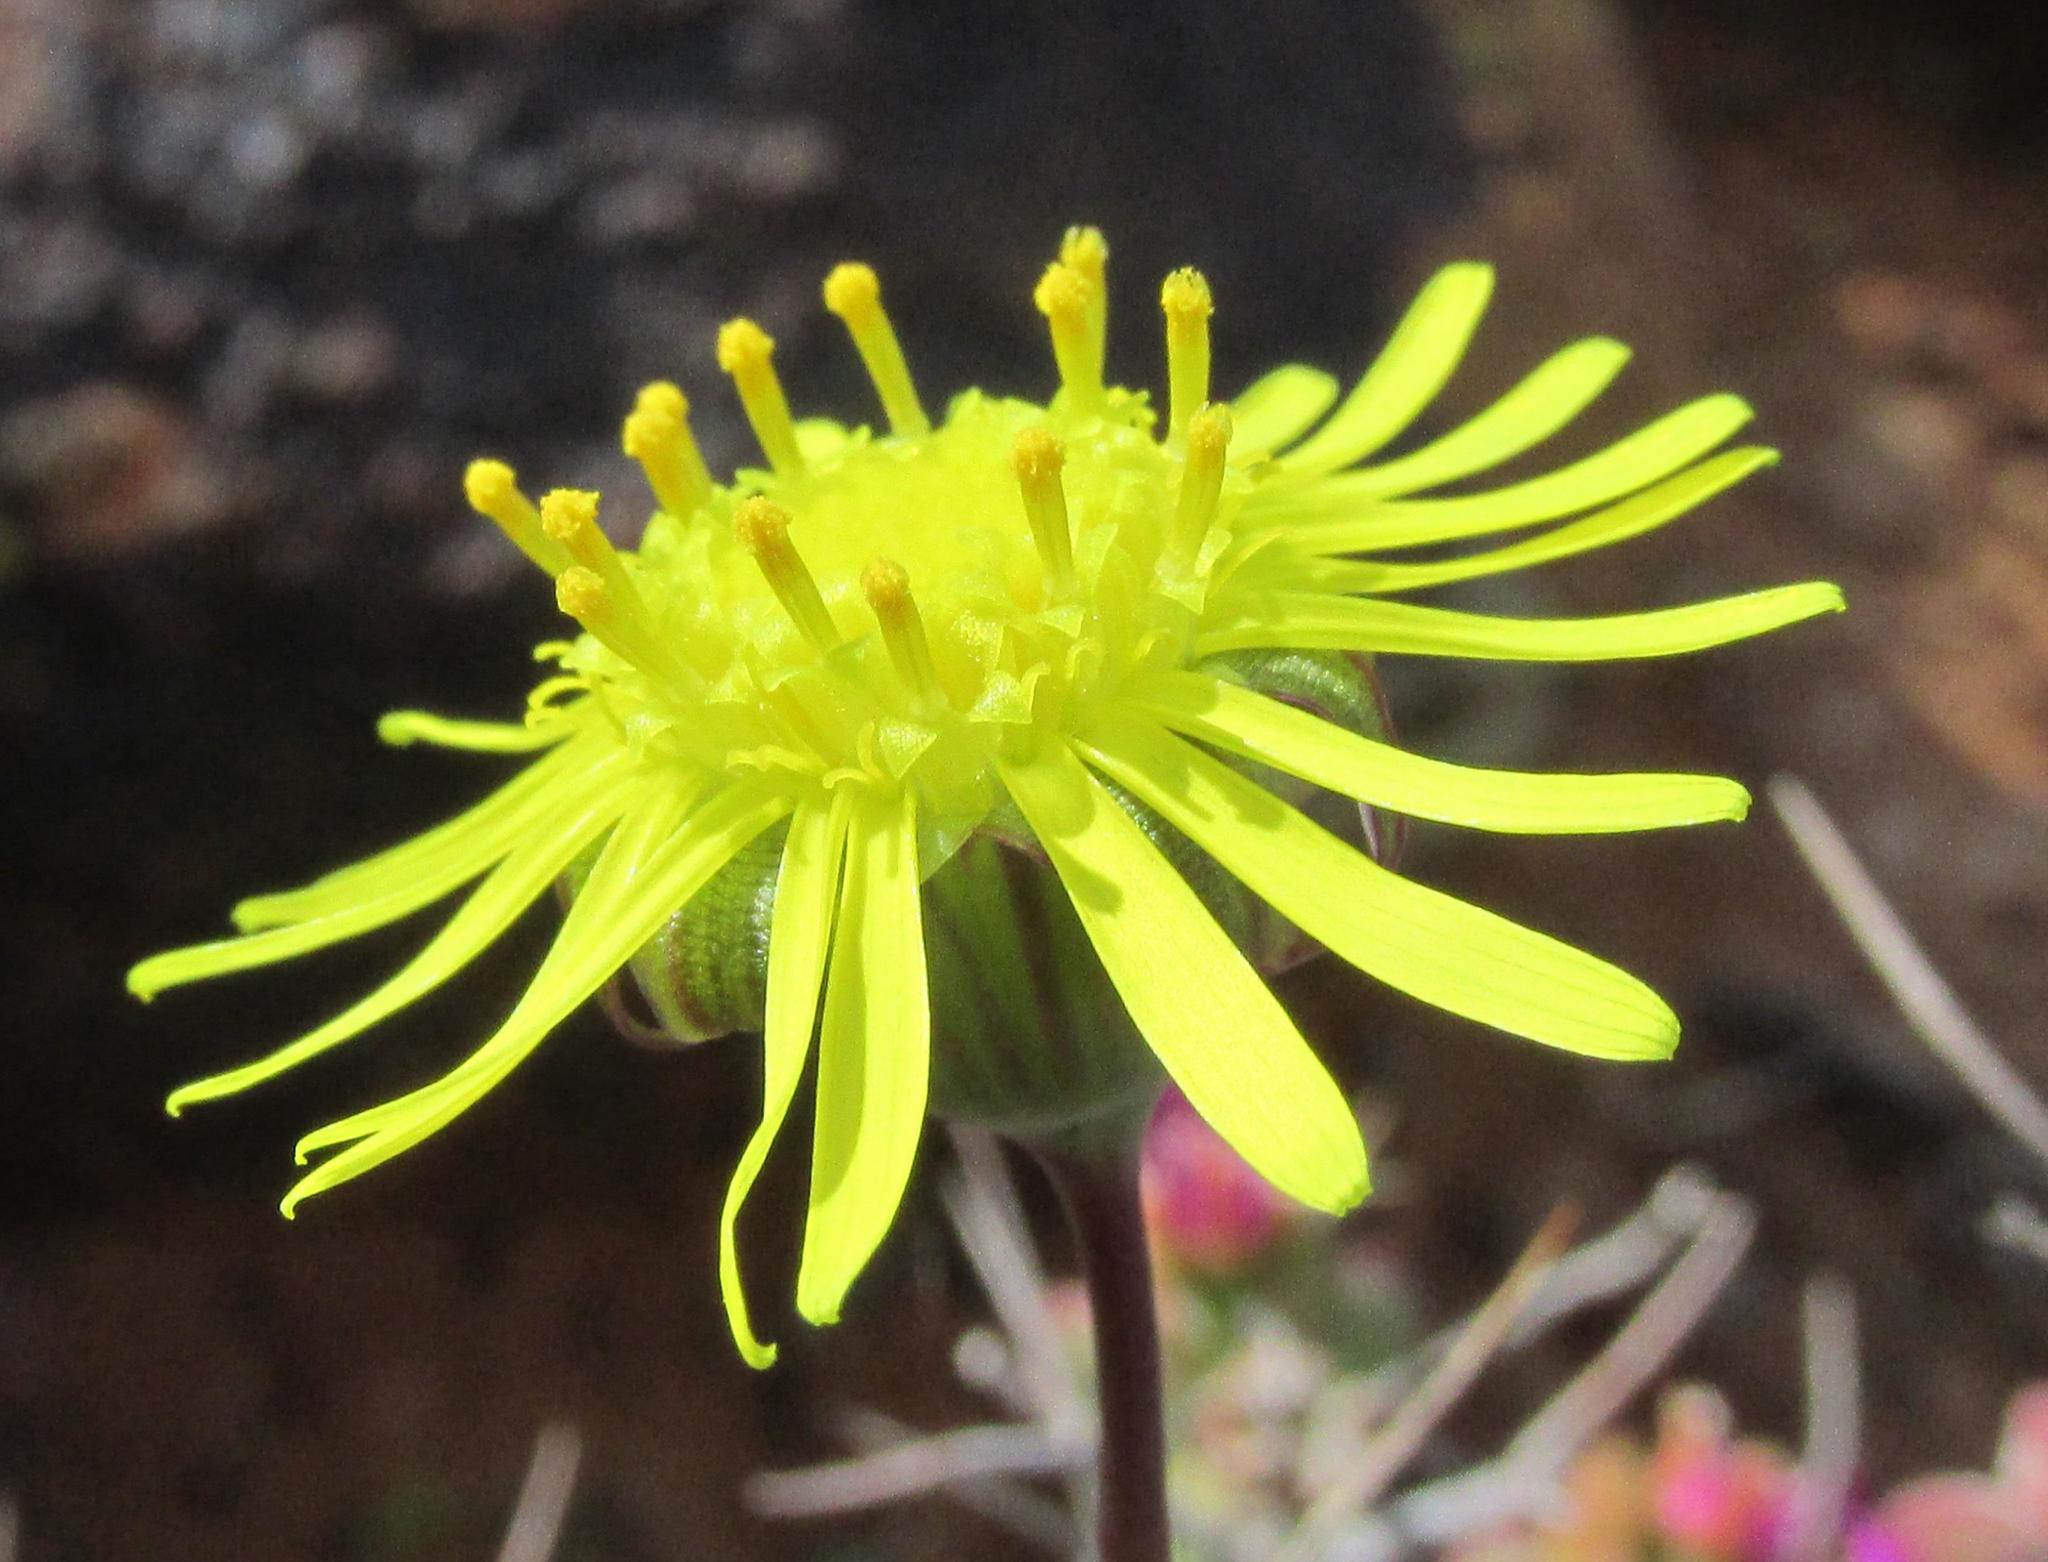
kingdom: Plantae
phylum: Tracheophyta
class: Magnoliopsida
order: Asterales
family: Asteraceae
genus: Crassothonna
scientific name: Crassothonna protecta
